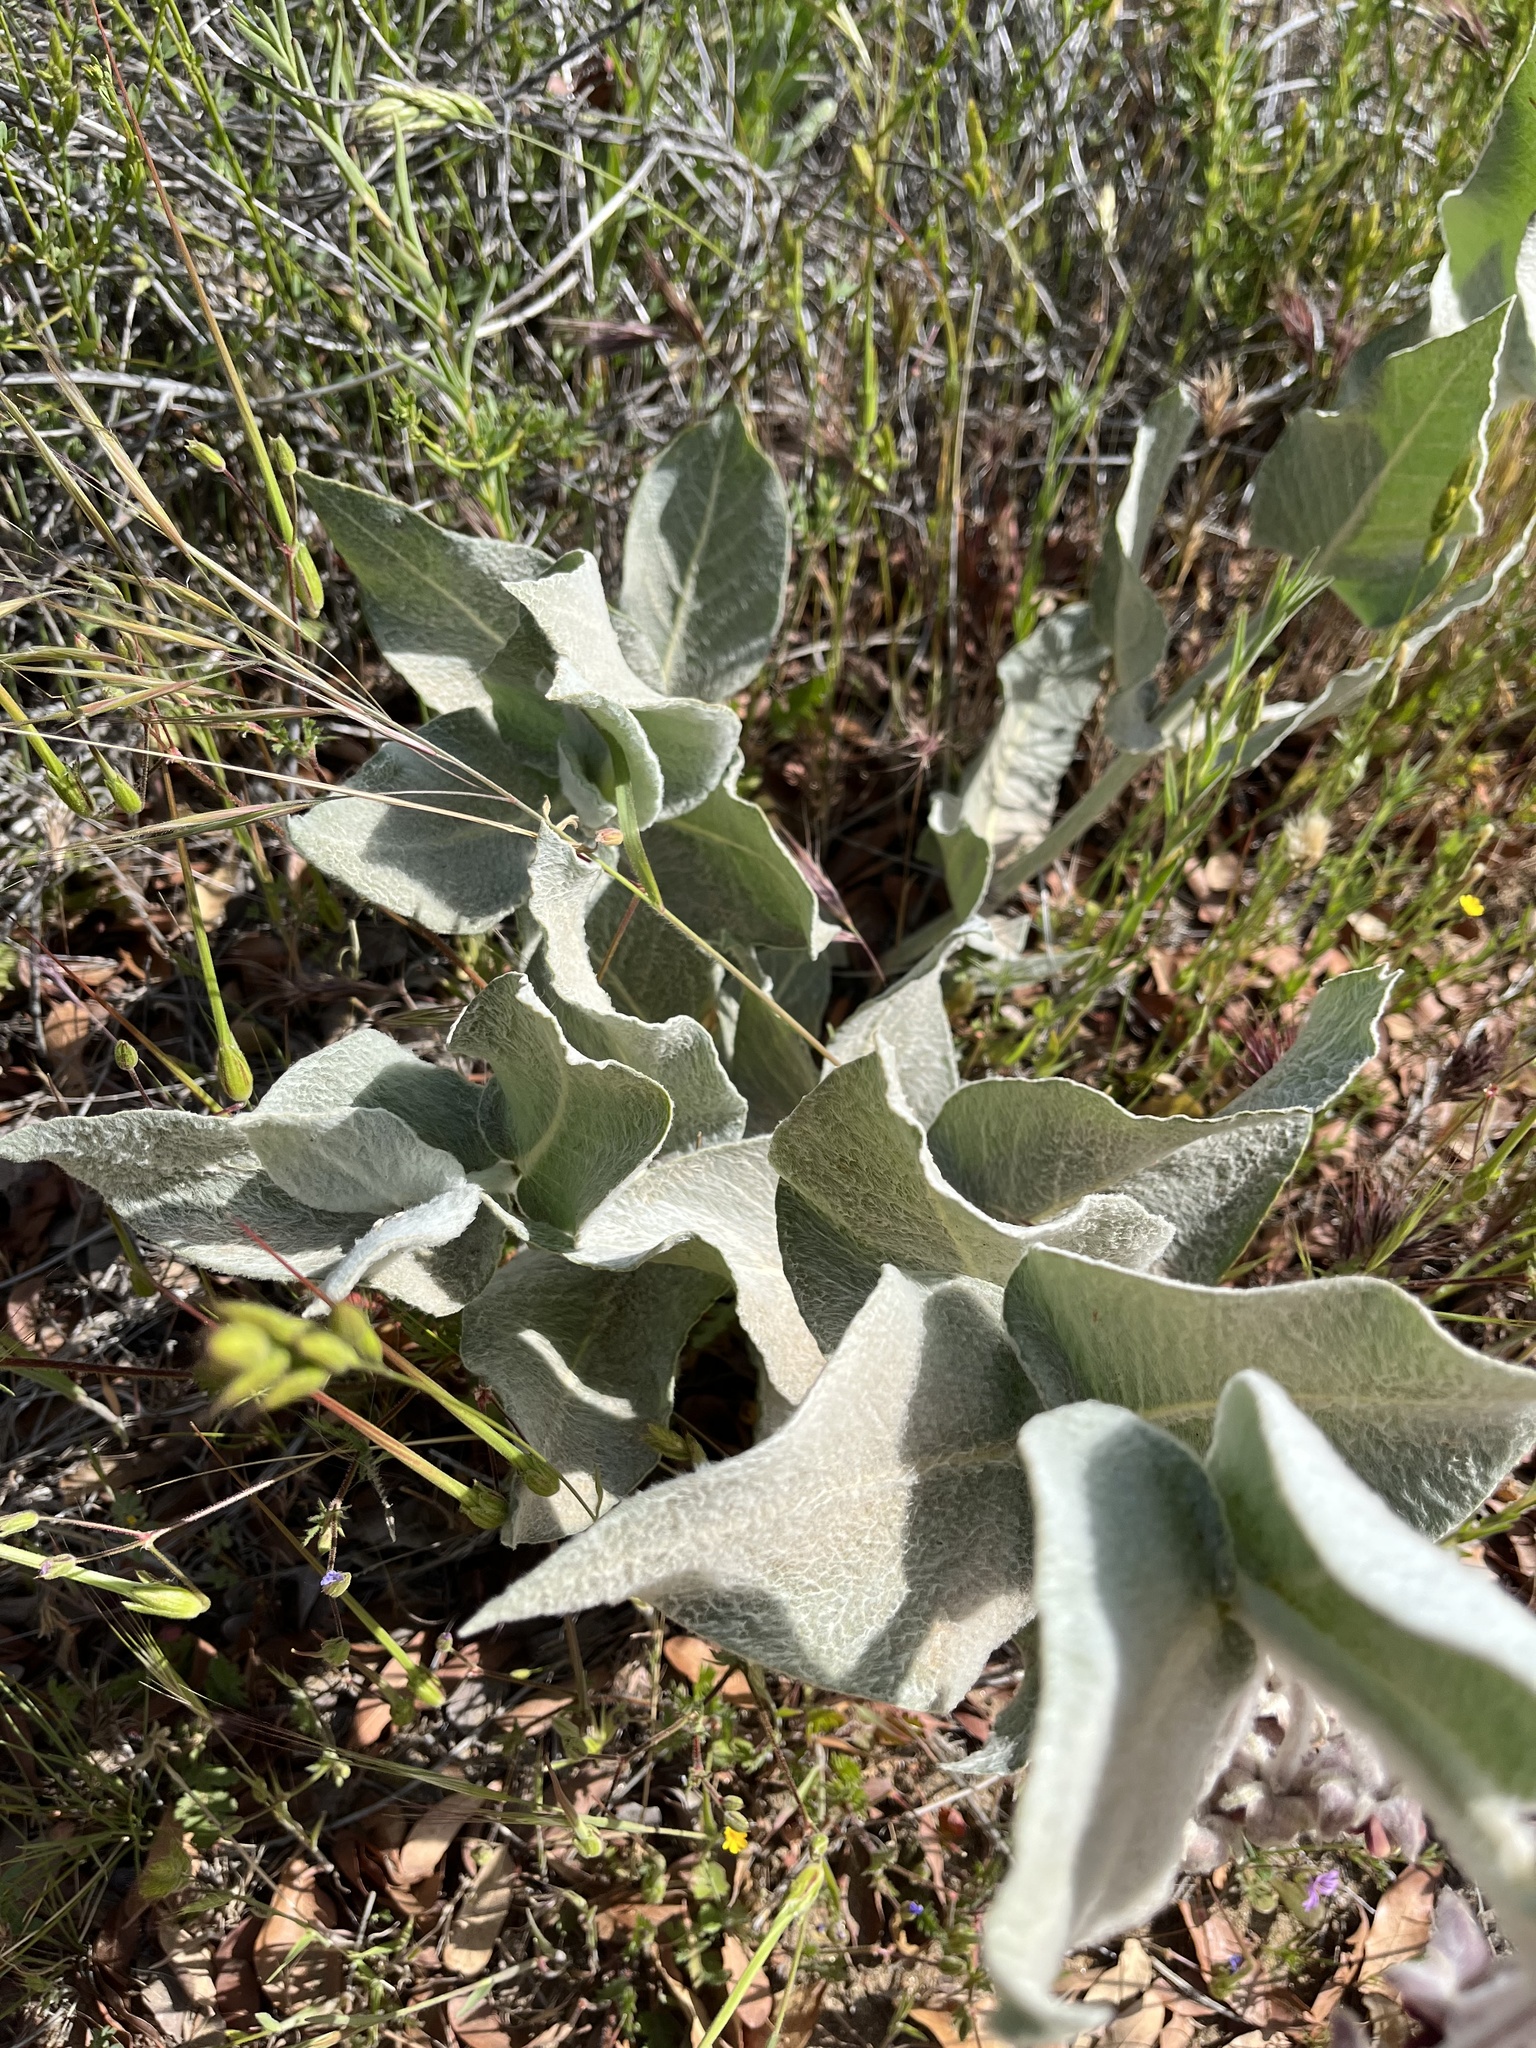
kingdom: Plantae
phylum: Tracheophyta
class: Magnoliopsida
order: Gentianales
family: Apocynaceae
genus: Asclepias
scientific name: Asclepias californica
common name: California milkweed
